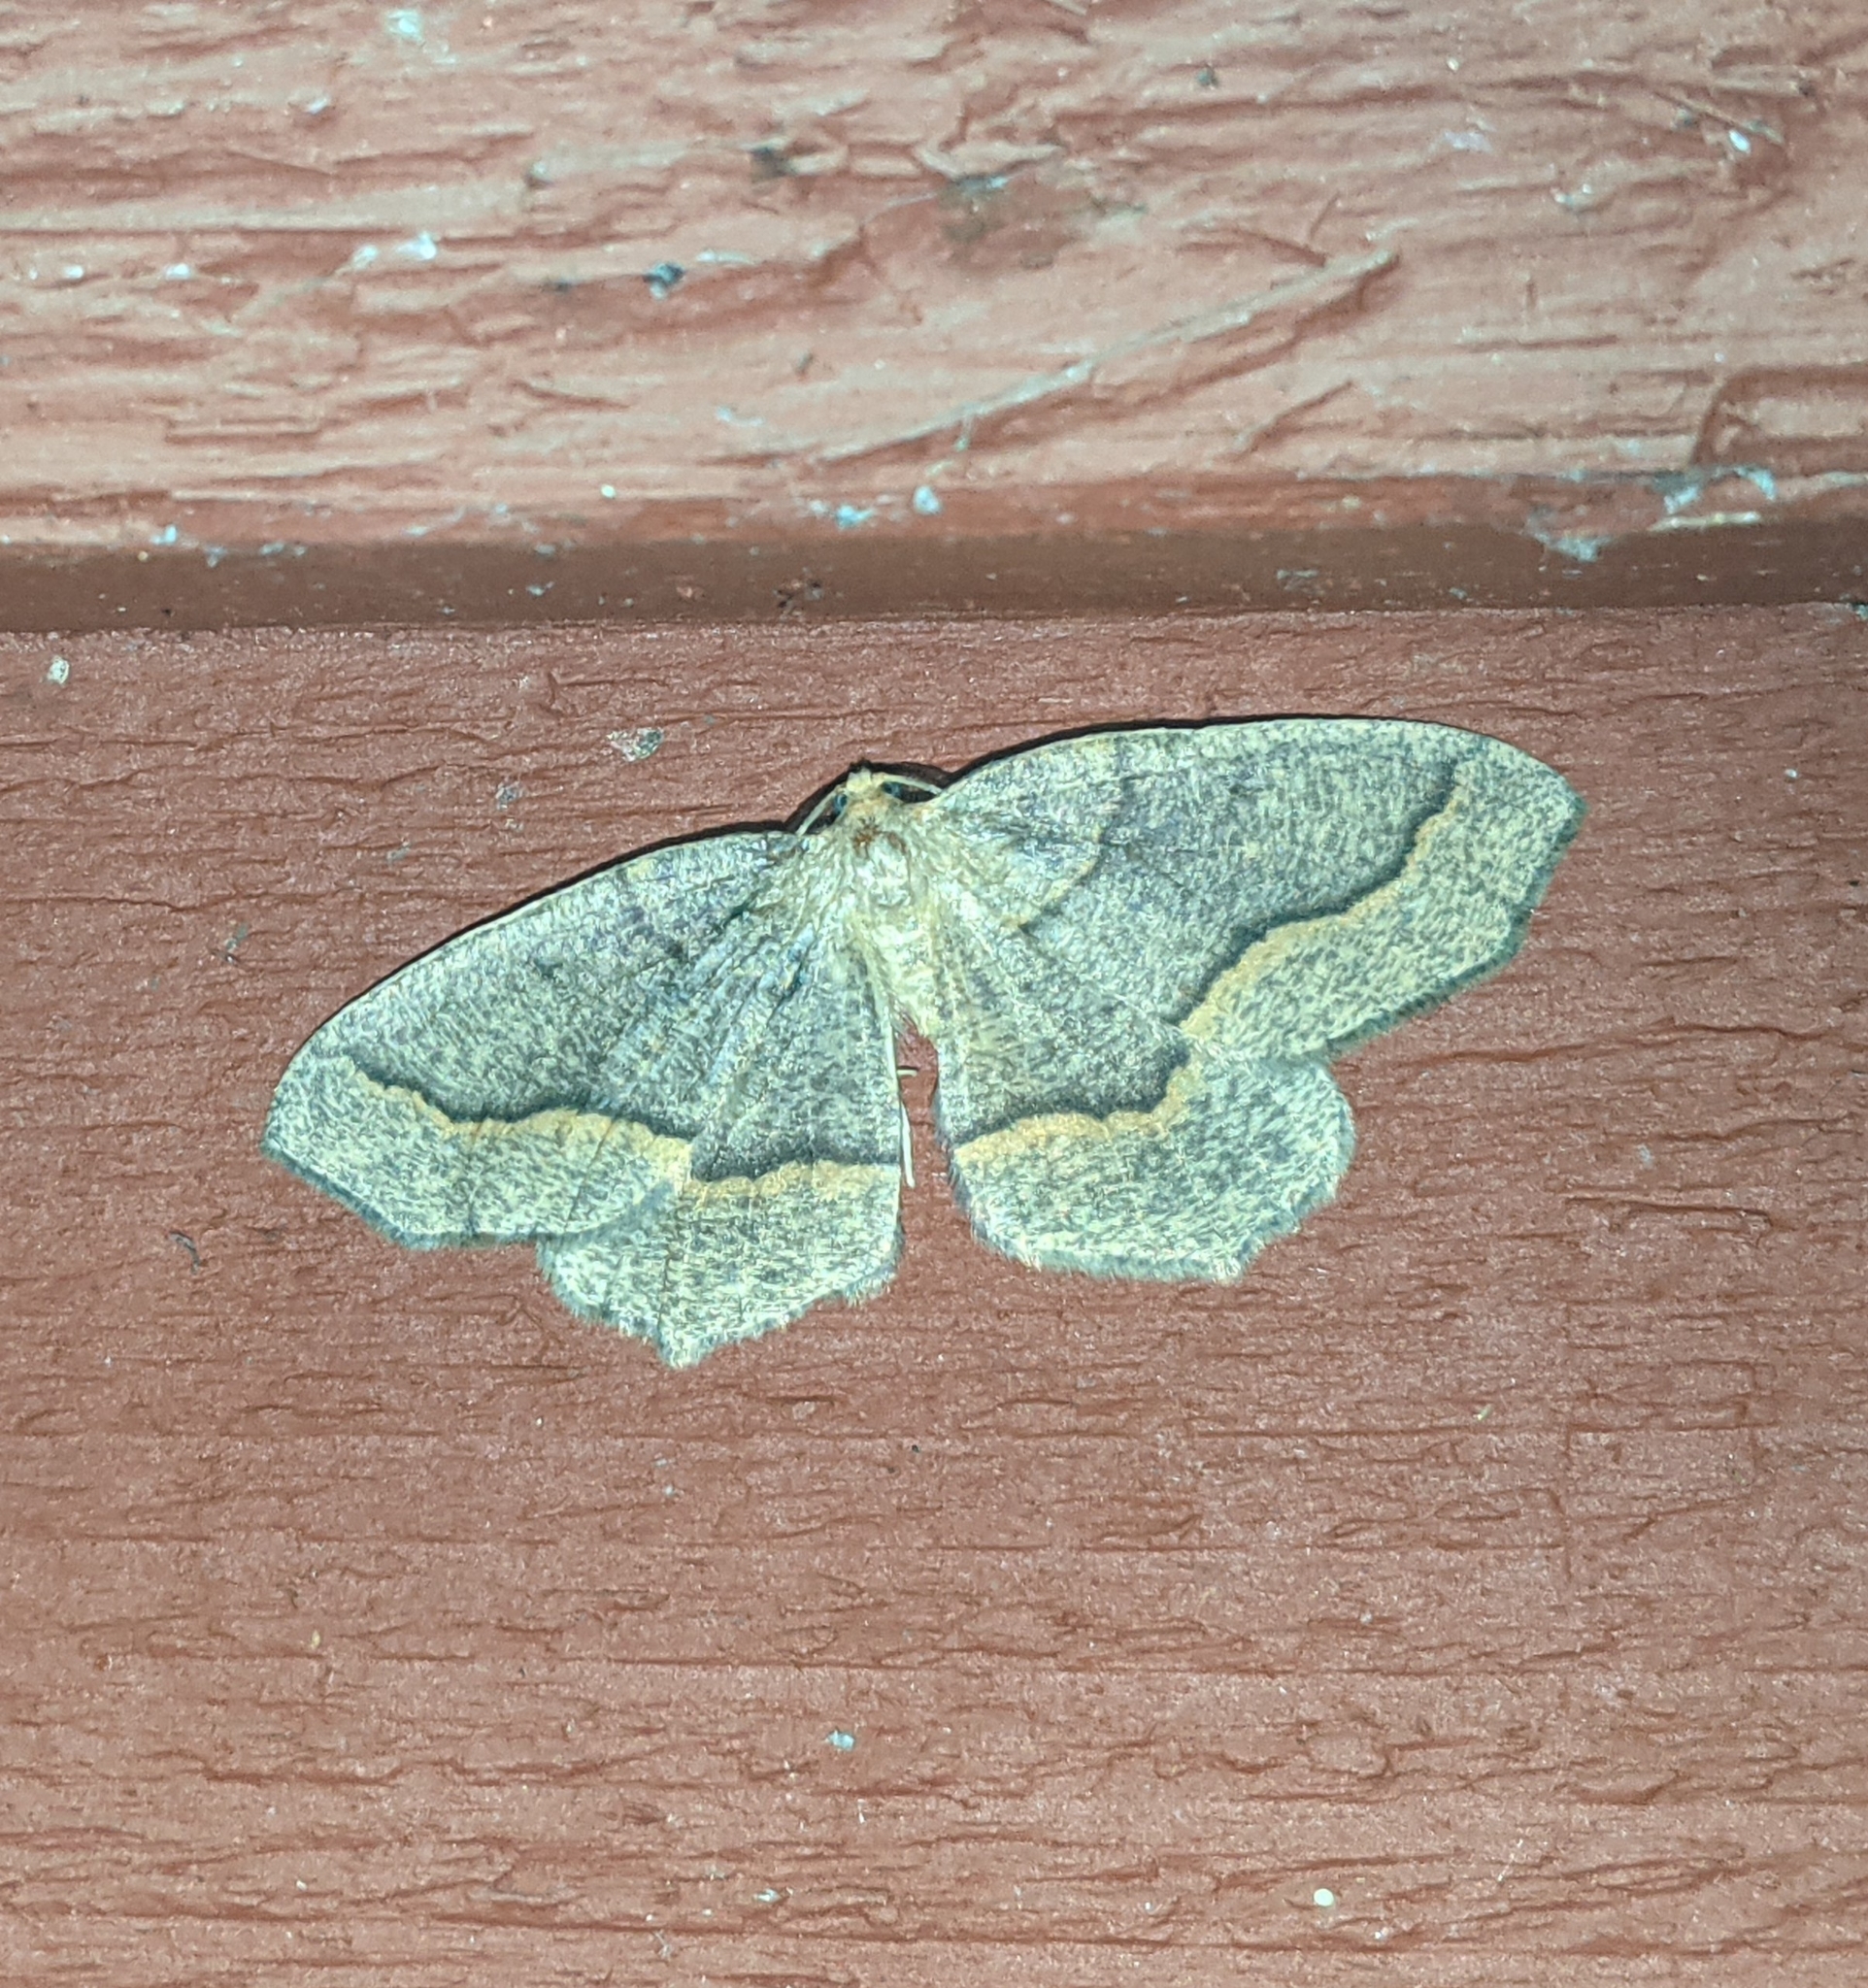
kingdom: Animalia
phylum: Arthropoda
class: Insecta
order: Lepidoptera
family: Geometridae
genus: Lambdina
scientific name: Lambdina fiscellaria
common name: Hemlock looper
